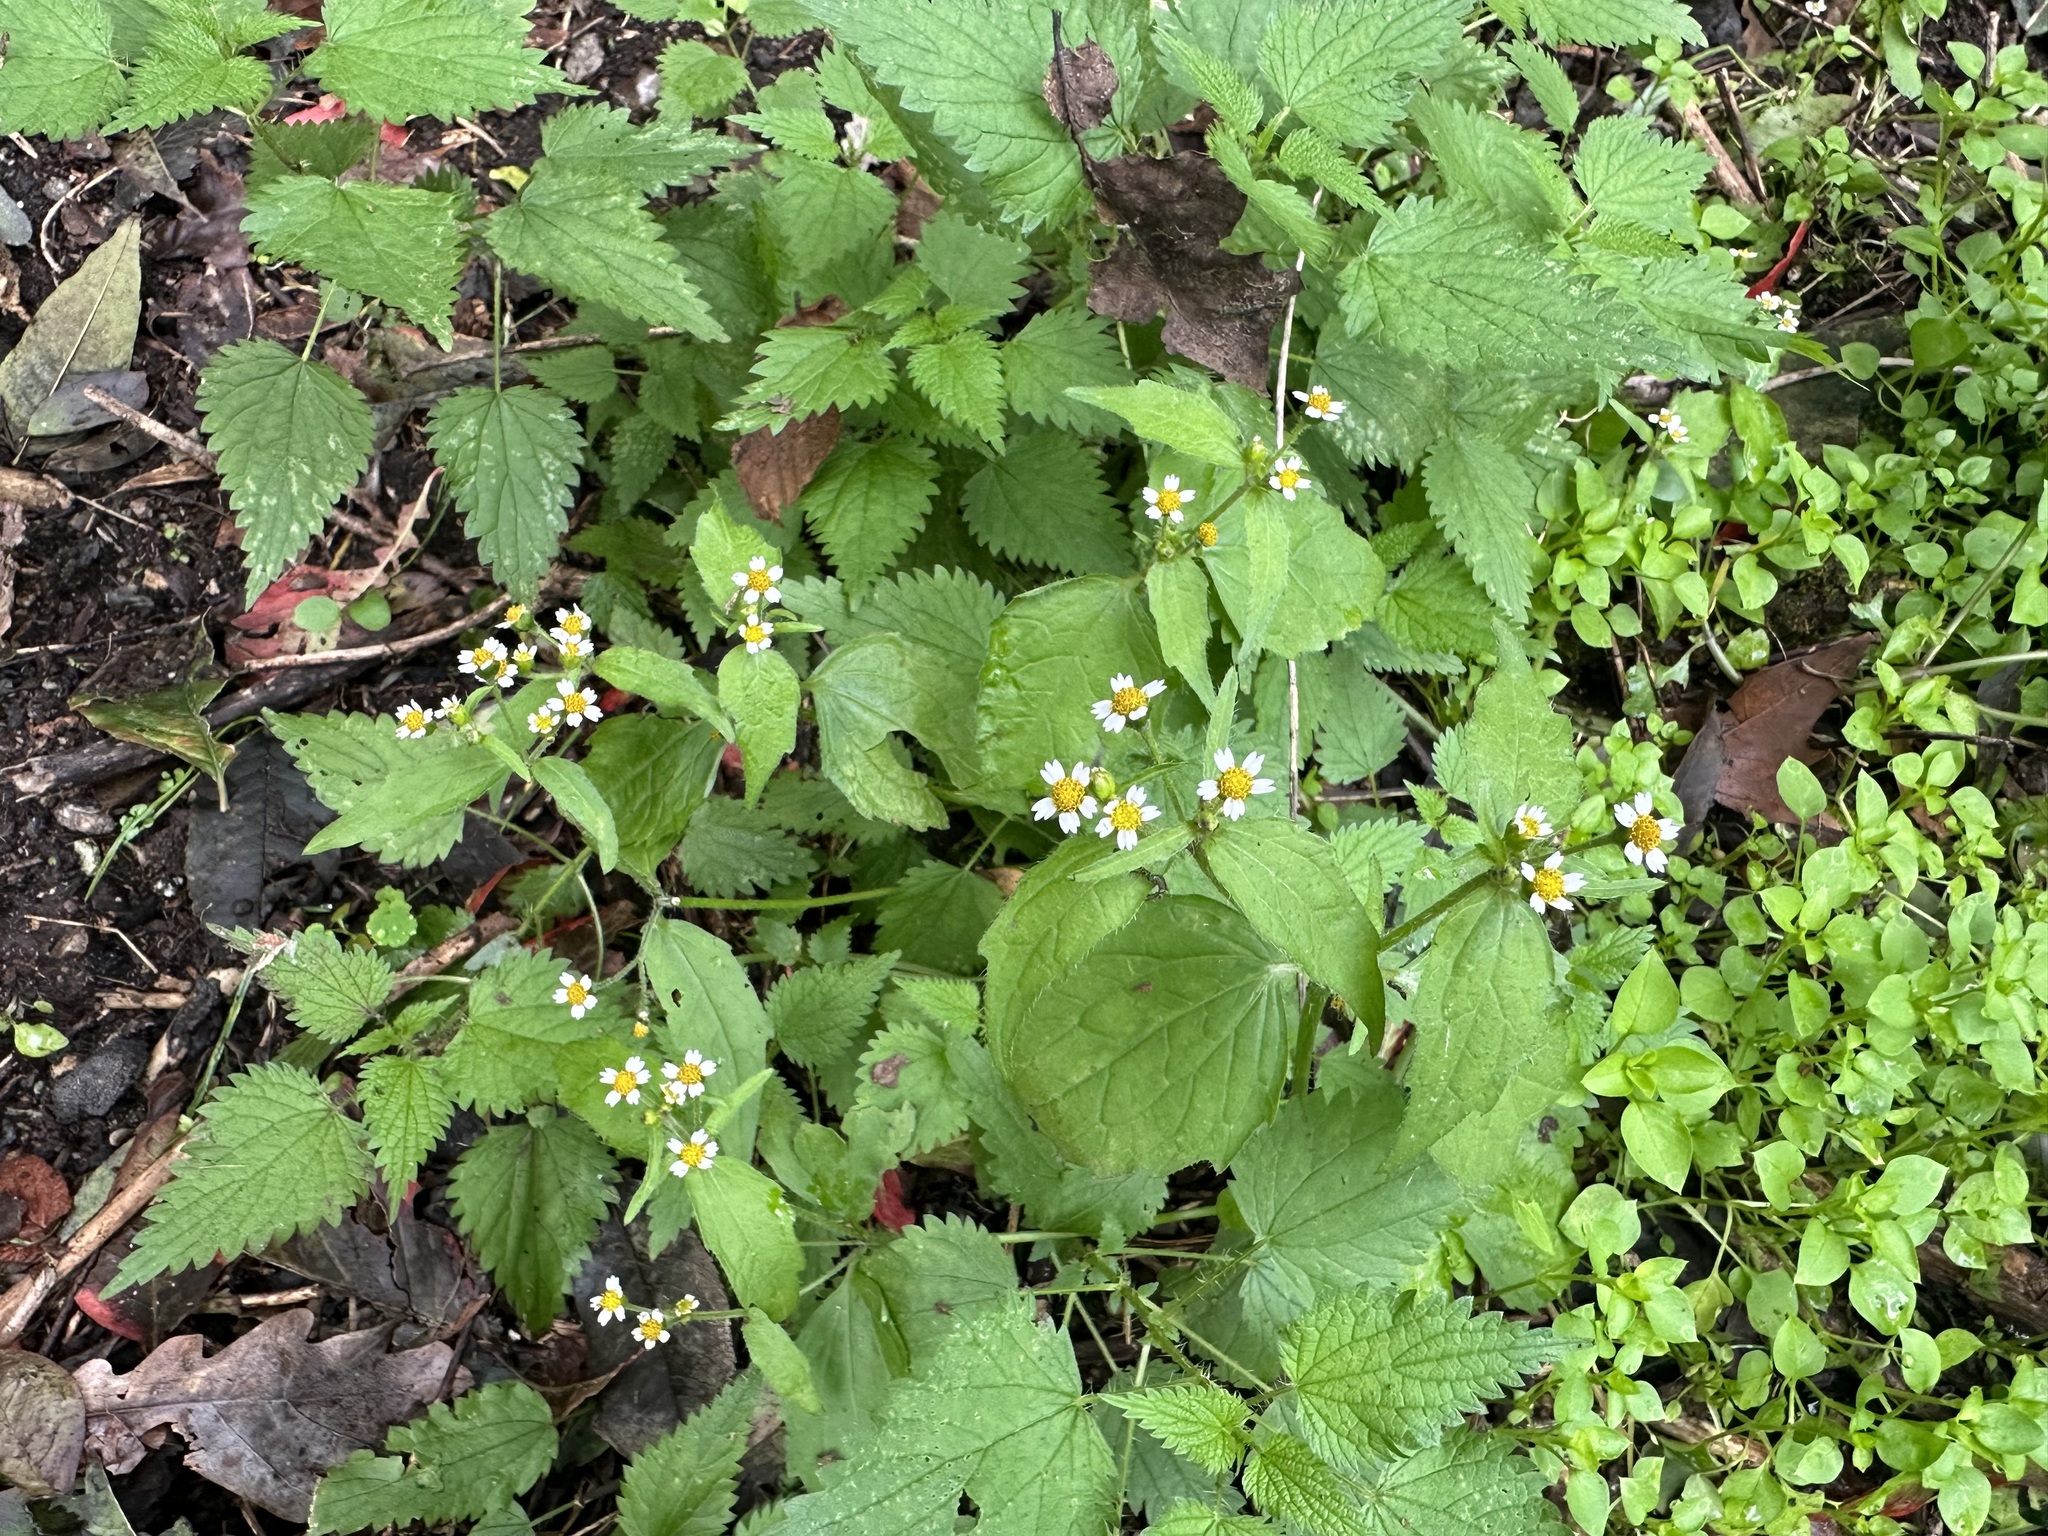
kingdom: Plantae
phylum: Tracheophyta
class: Magnoliopsida
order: Asterales
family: Asteraceae
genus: Galinsoga
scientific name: Galinsoga quadriradiata
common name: Shaggy soldier
